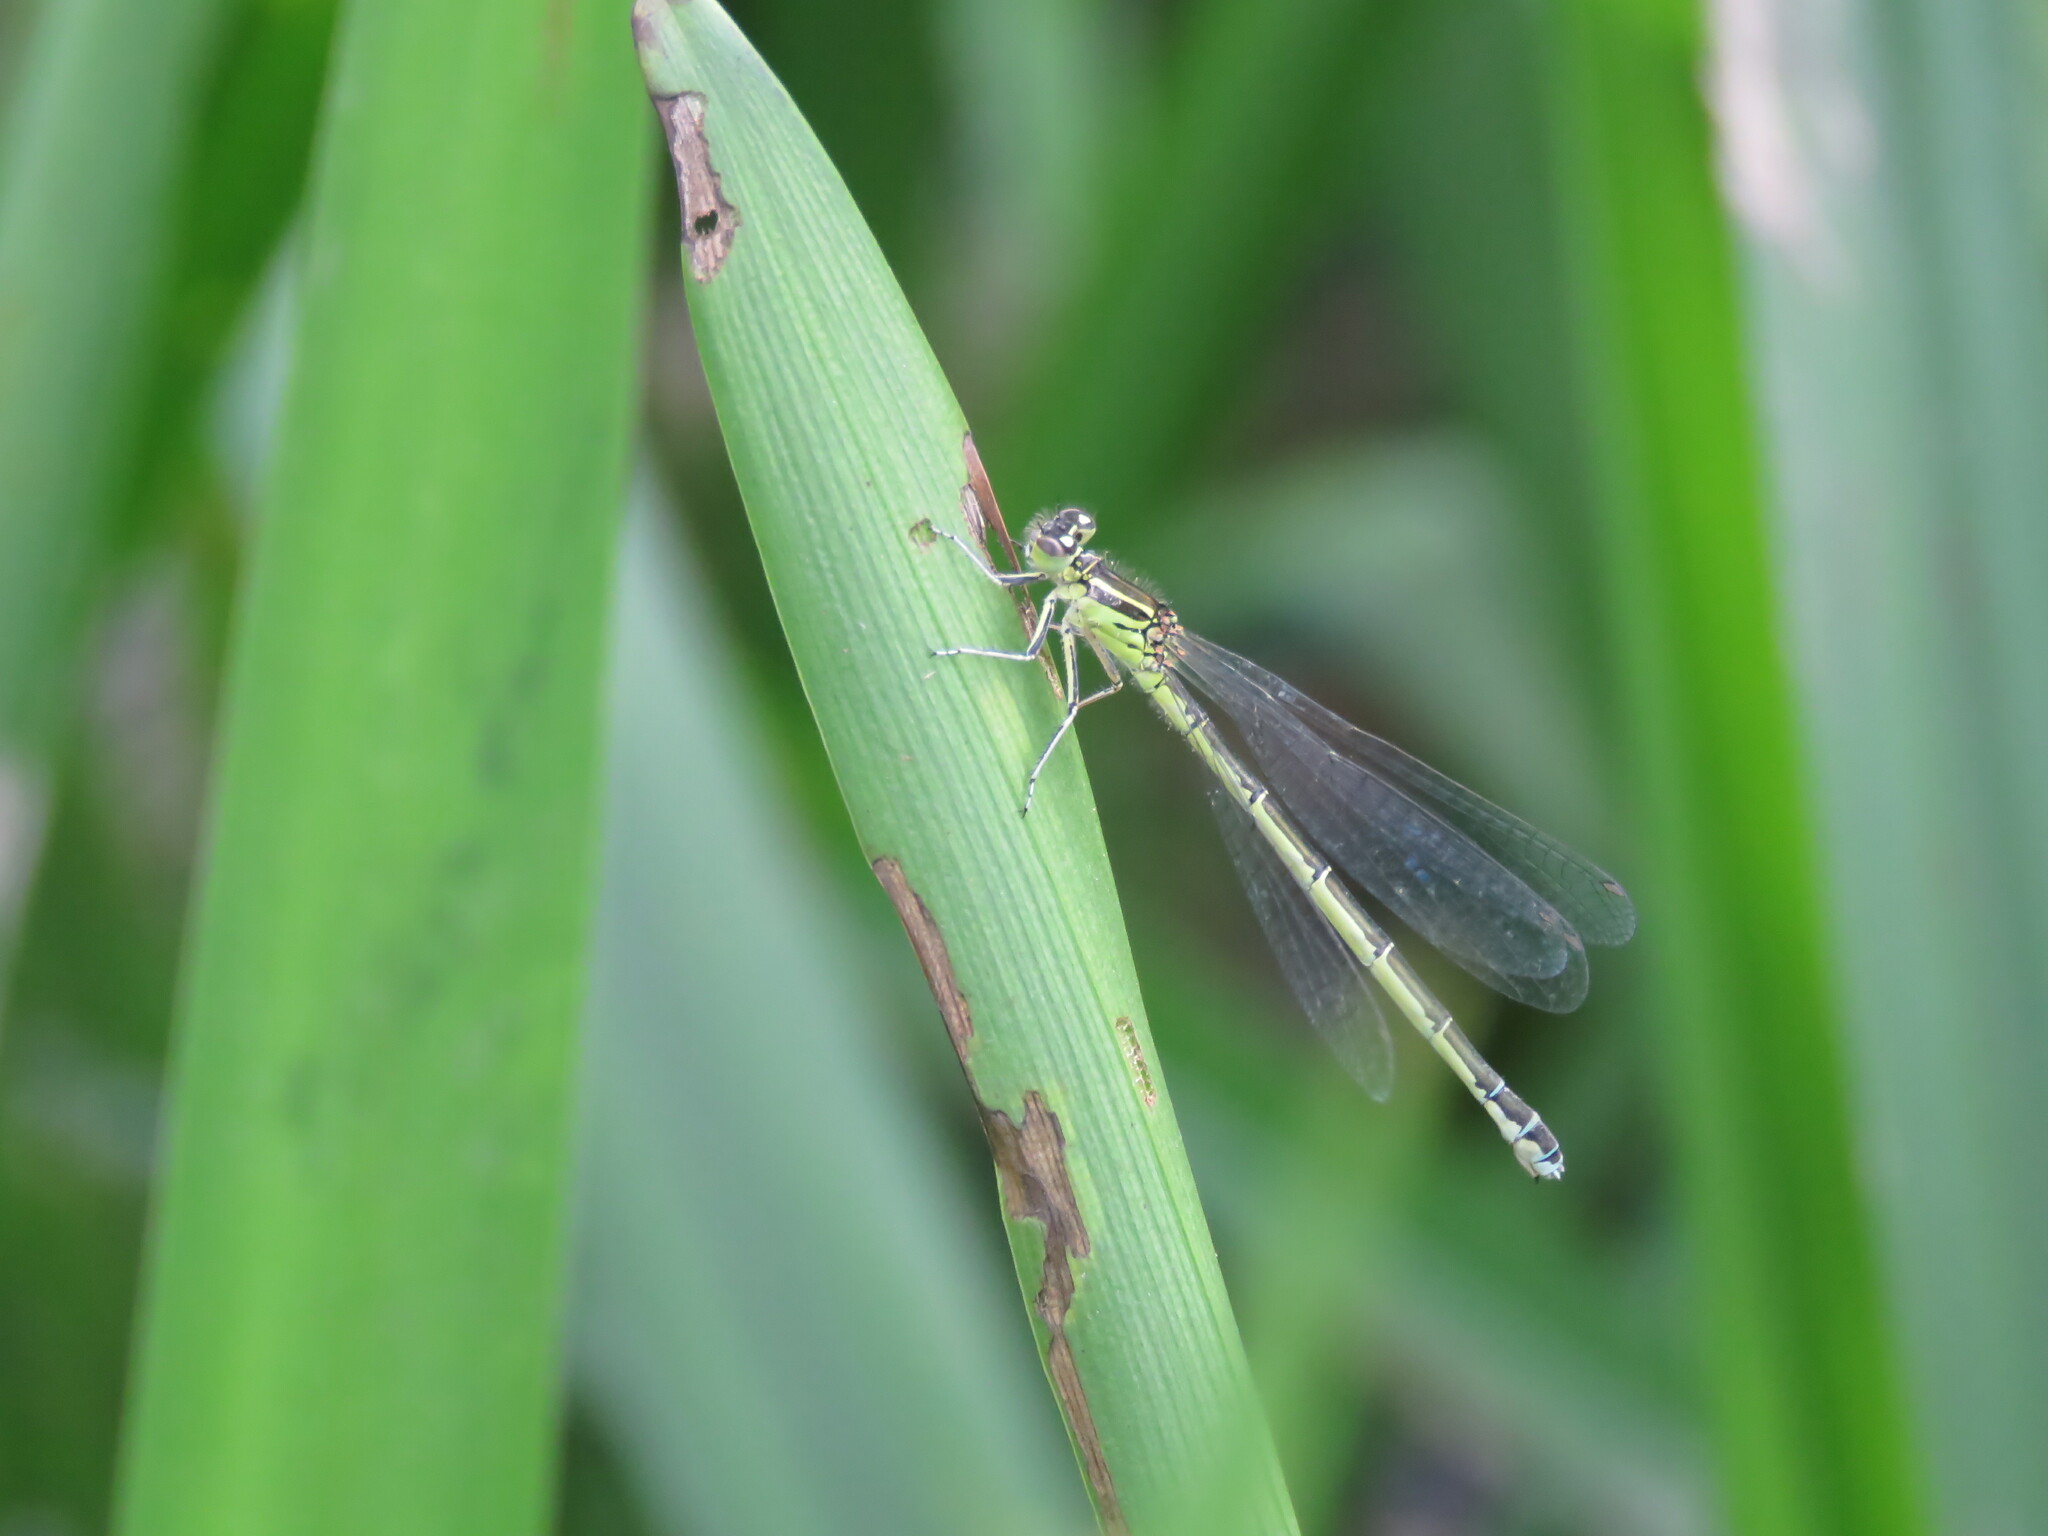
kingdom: Animalia
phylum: Arthropoda
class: Insecta
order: Odonata
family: Coenagrionidae
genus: Coenagrion
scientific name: Coenagrion mercuriale
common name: Southern damselfly
